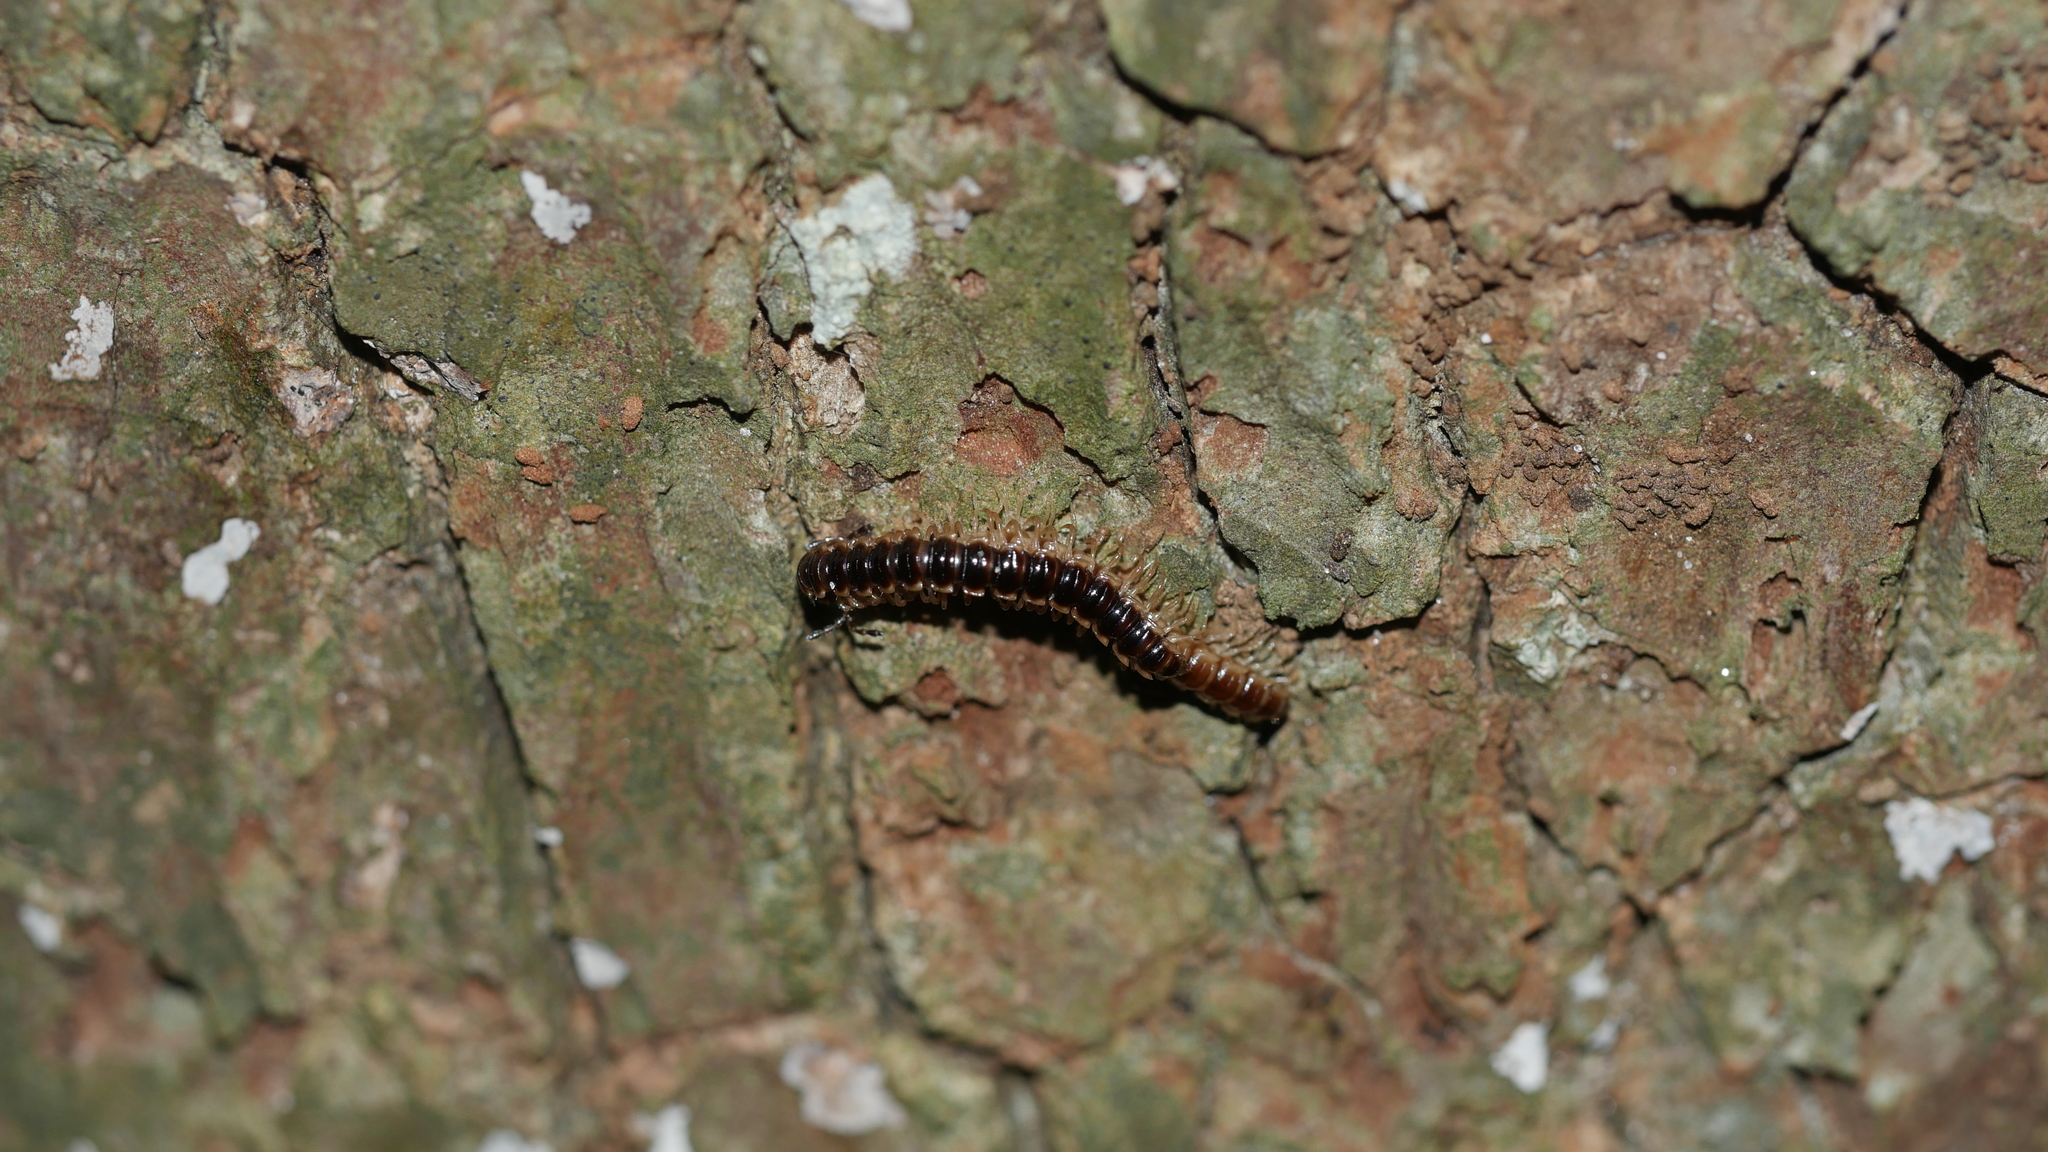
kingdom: Animalia
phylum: Arthropoda
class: Diplopoda
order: Polydesmida
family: Paradoxosomatidae
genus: Oxidus
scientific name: Oxidus gracilis
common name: Greenhouse millipede
